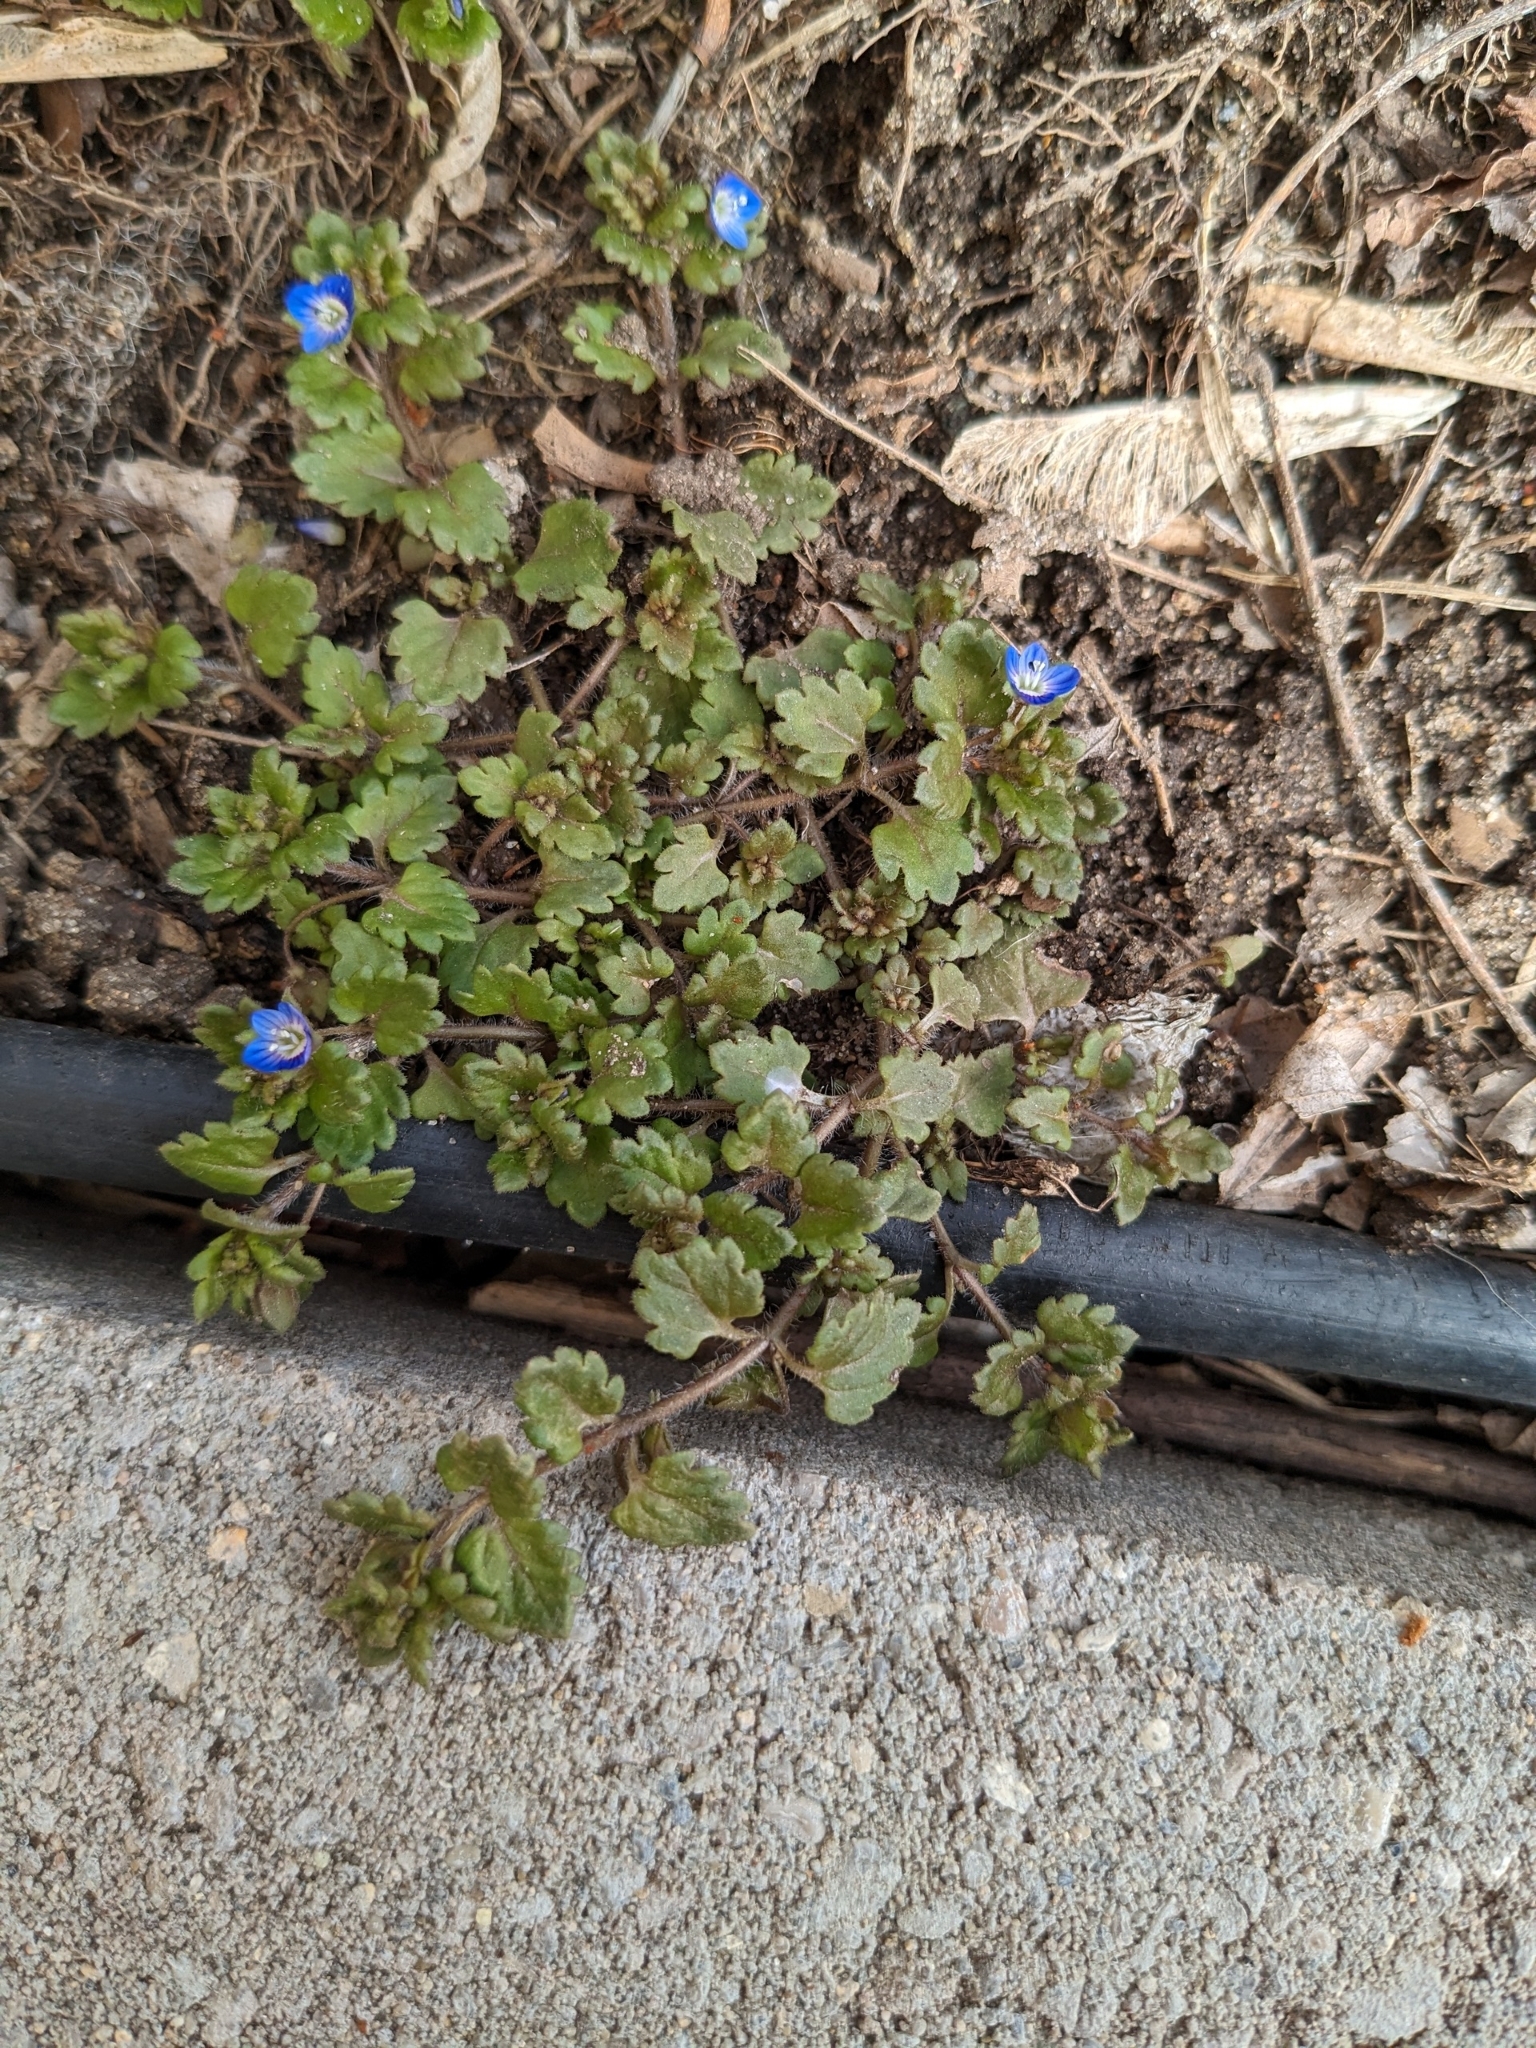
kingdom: Plantae
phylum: Tracheophyta
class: Magnoliopsida
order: Lamiales
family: Plantaginaceae
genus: Veronica
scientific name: Veronica polita
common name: Grey field-speedwell
